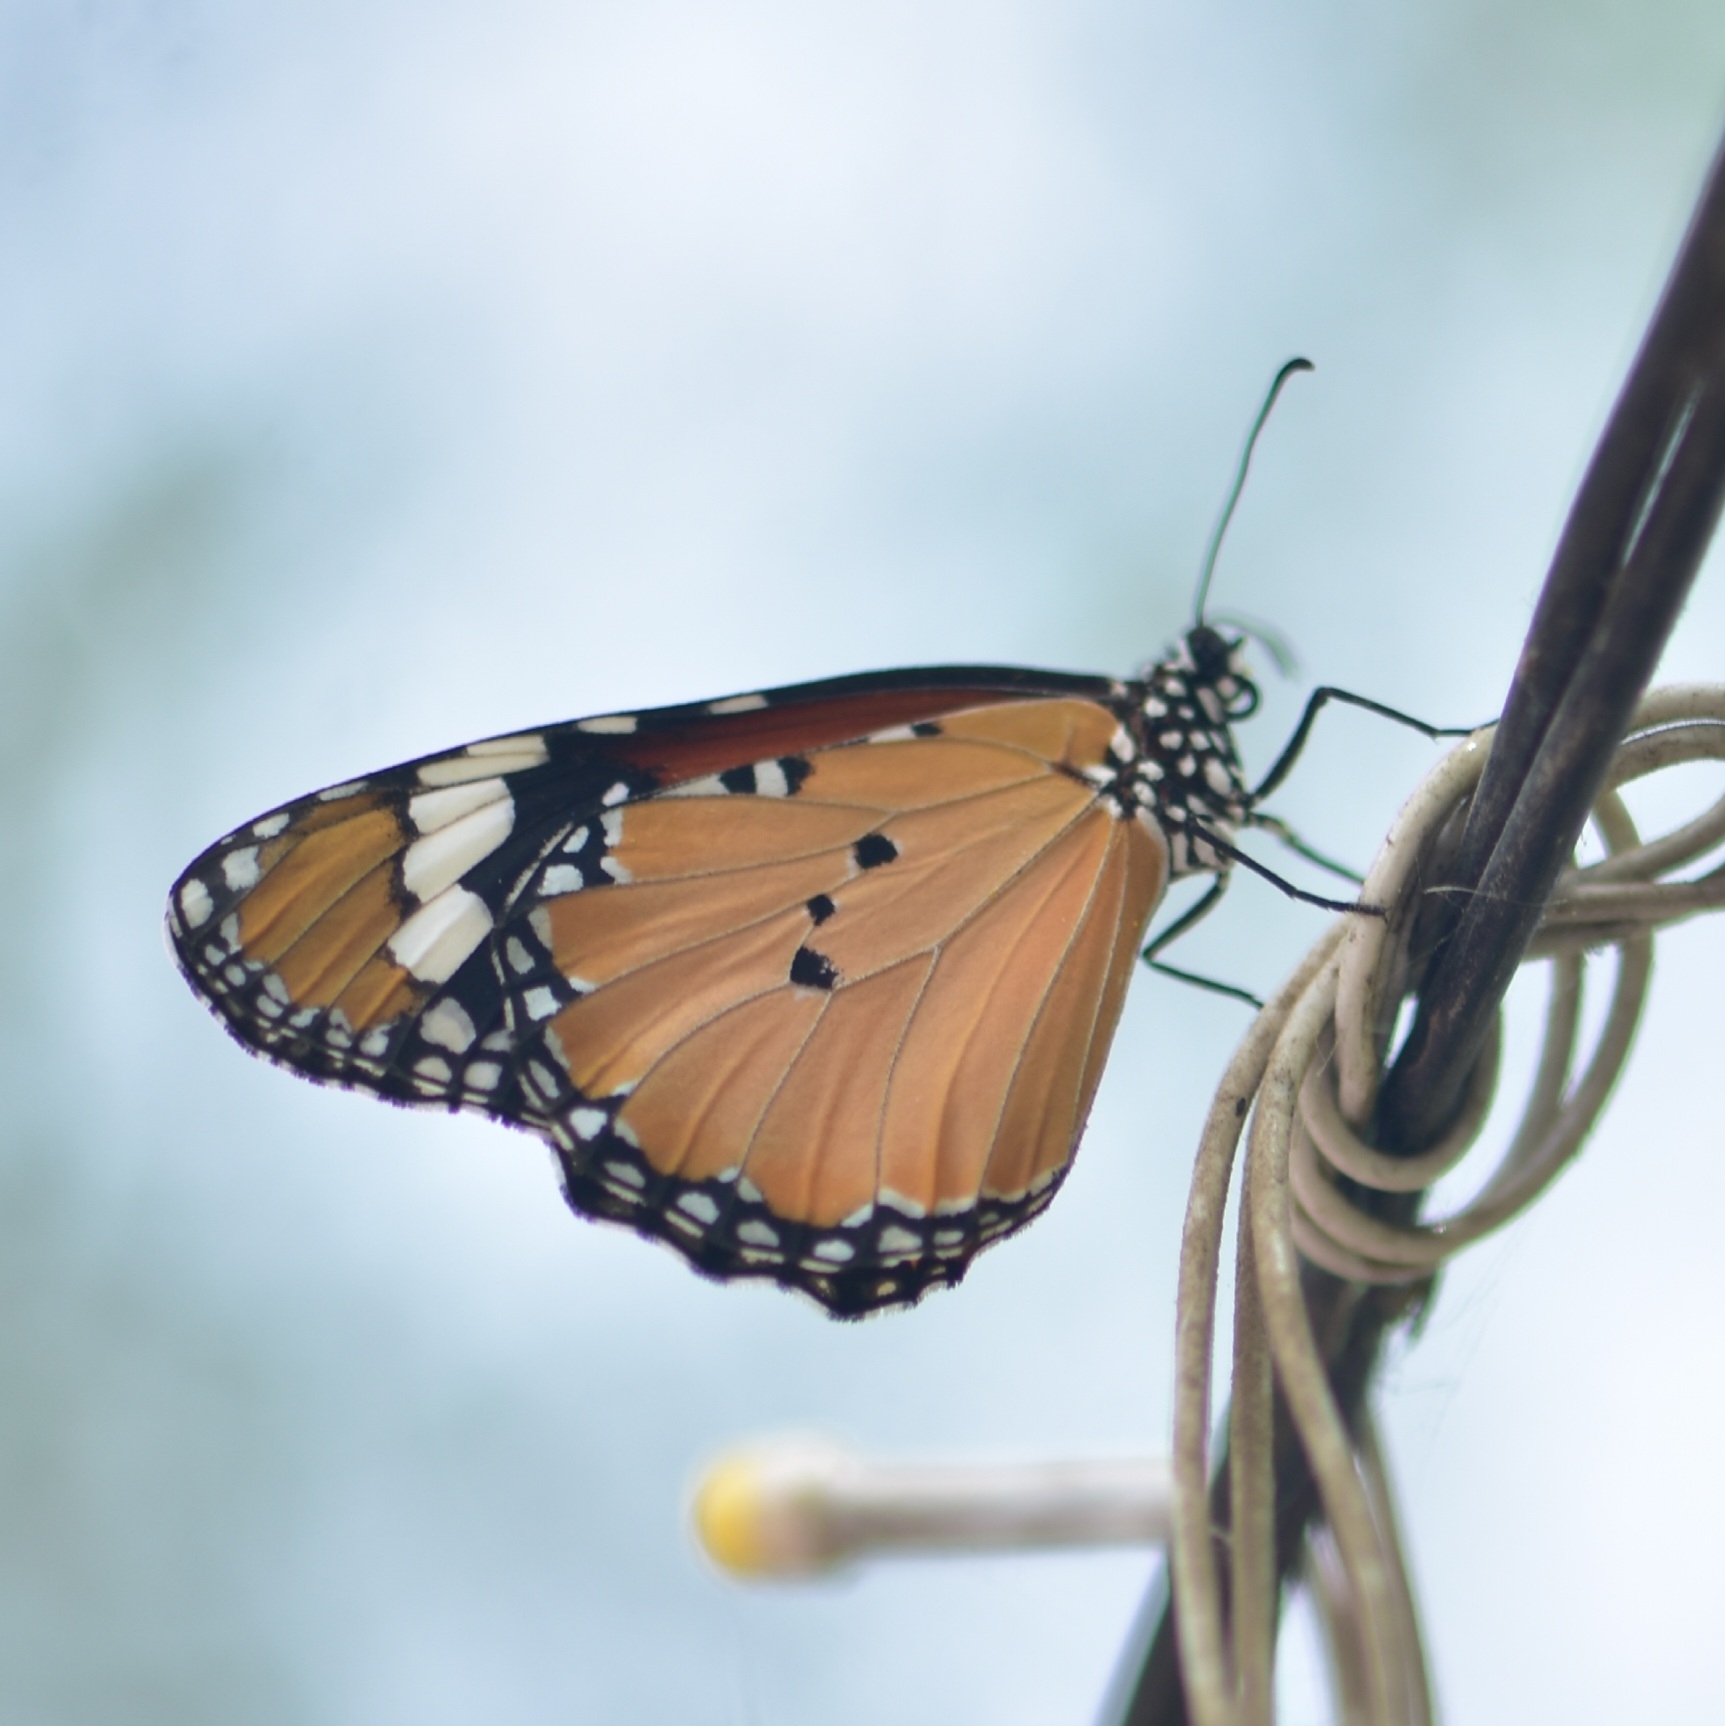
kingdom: Animalia
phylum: Arthropoda
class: Insecta
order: Lepidoptera
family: Nymphalidae
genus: Danaus
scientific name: Danaus chrysippus
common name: Plain tiger
